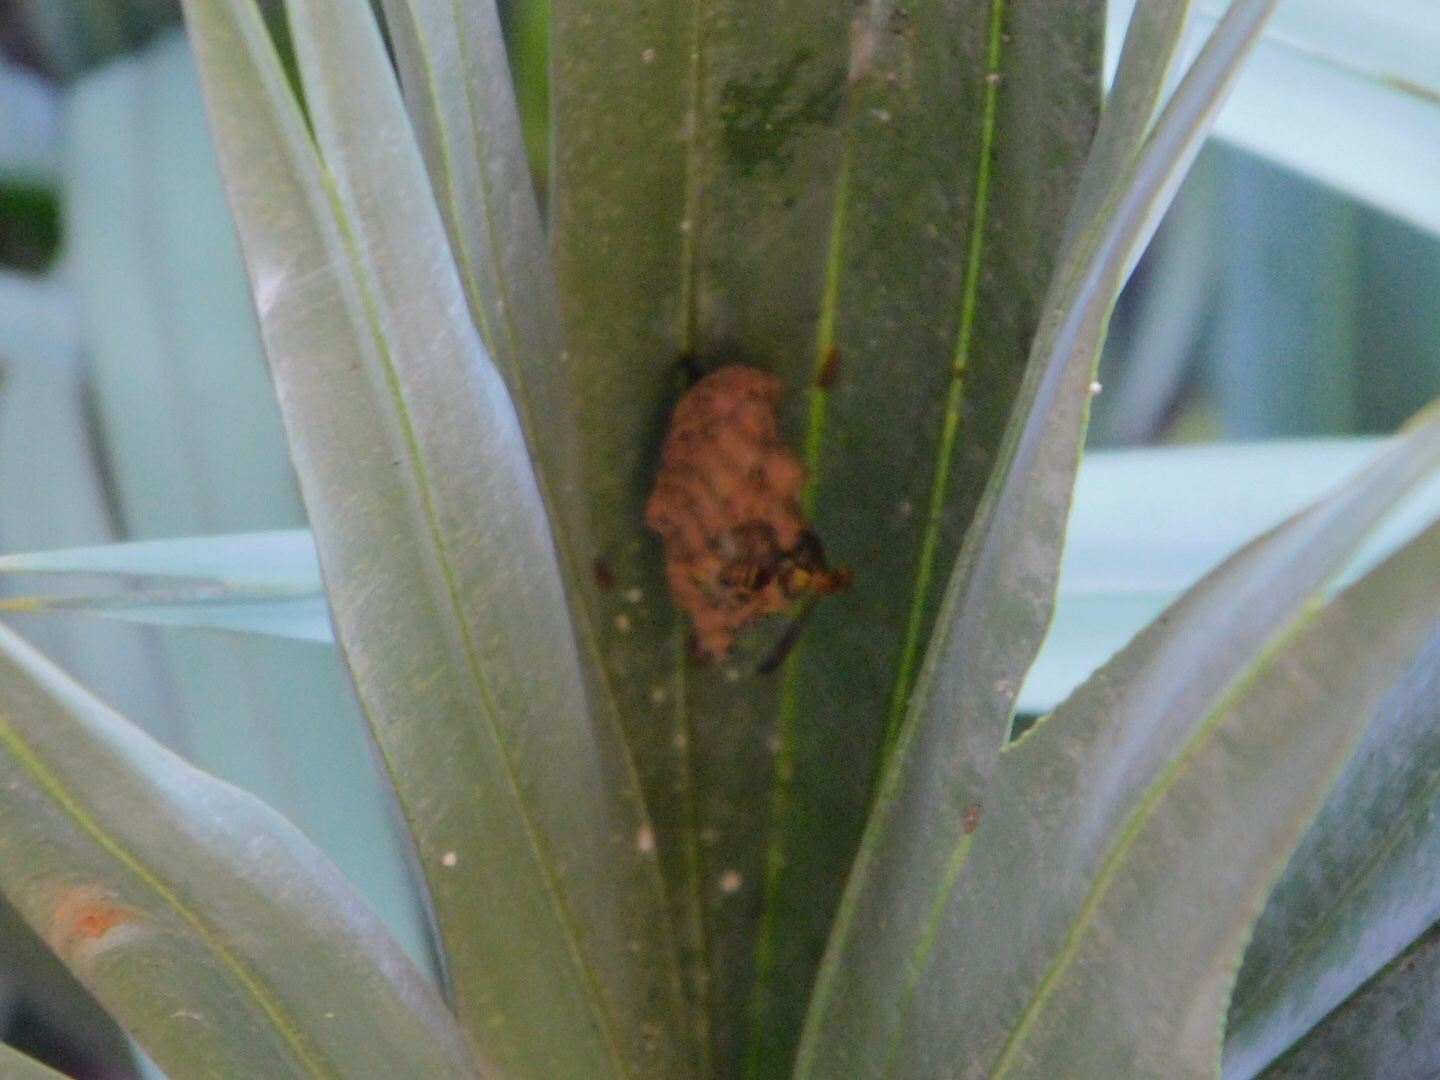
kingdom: Animalia
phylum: Arthropoda
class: Insecta
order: Hymenoptera
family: Vespidae
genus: Mischocyttarus
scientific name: Mischocyttarus mexicanus
